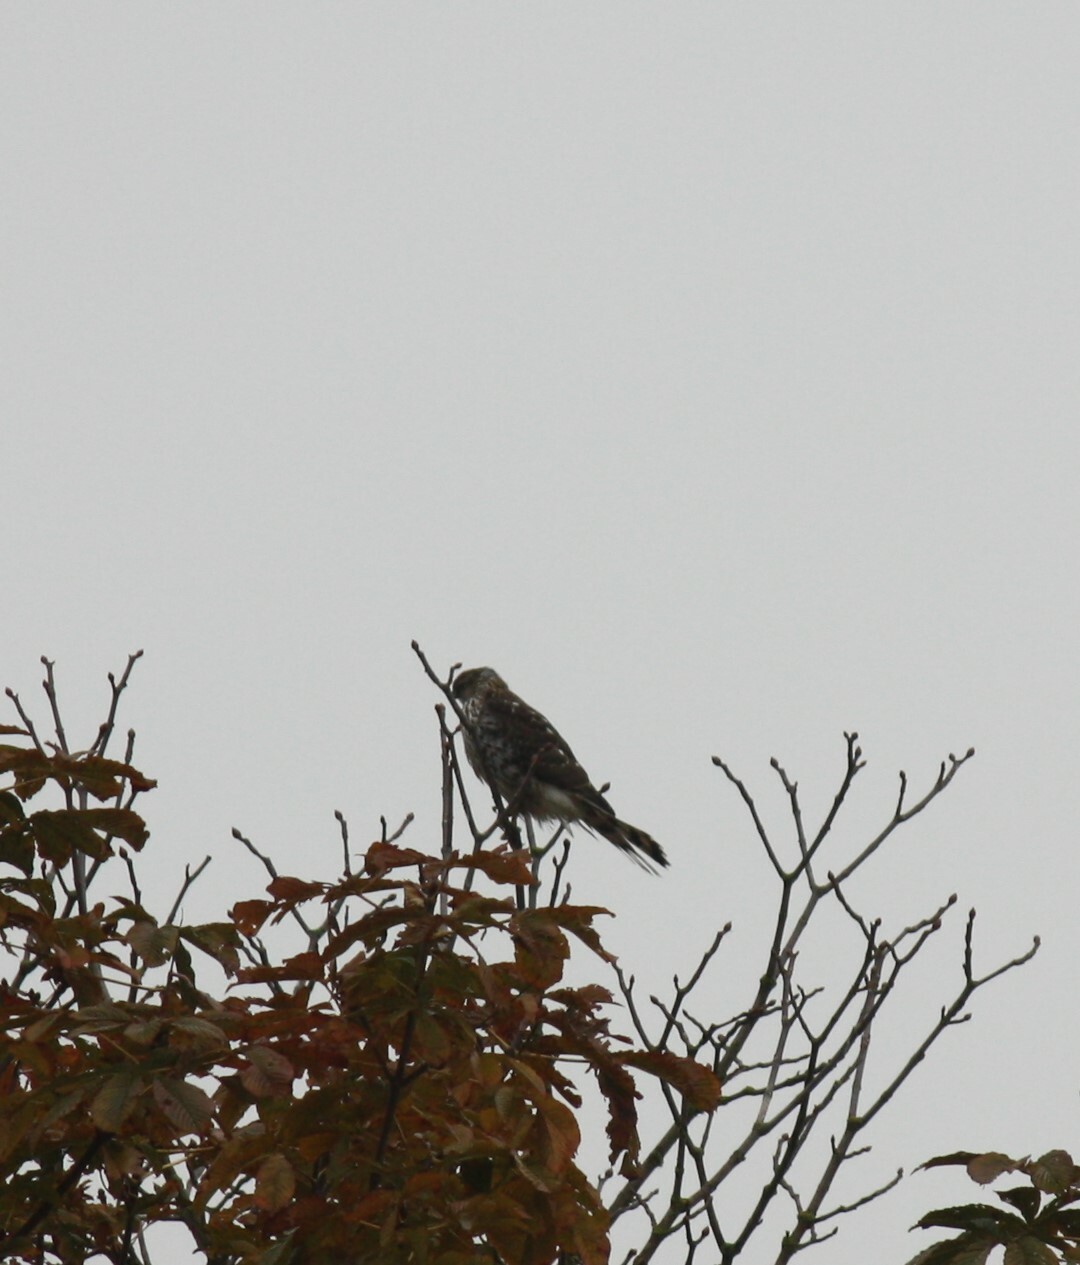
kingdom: Animalia
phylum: Chordata
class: Aves
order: Accipitriformes
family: Accipitridae
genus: Accipiter
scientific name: Accipiter cooperii
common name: Cooper's hawk
